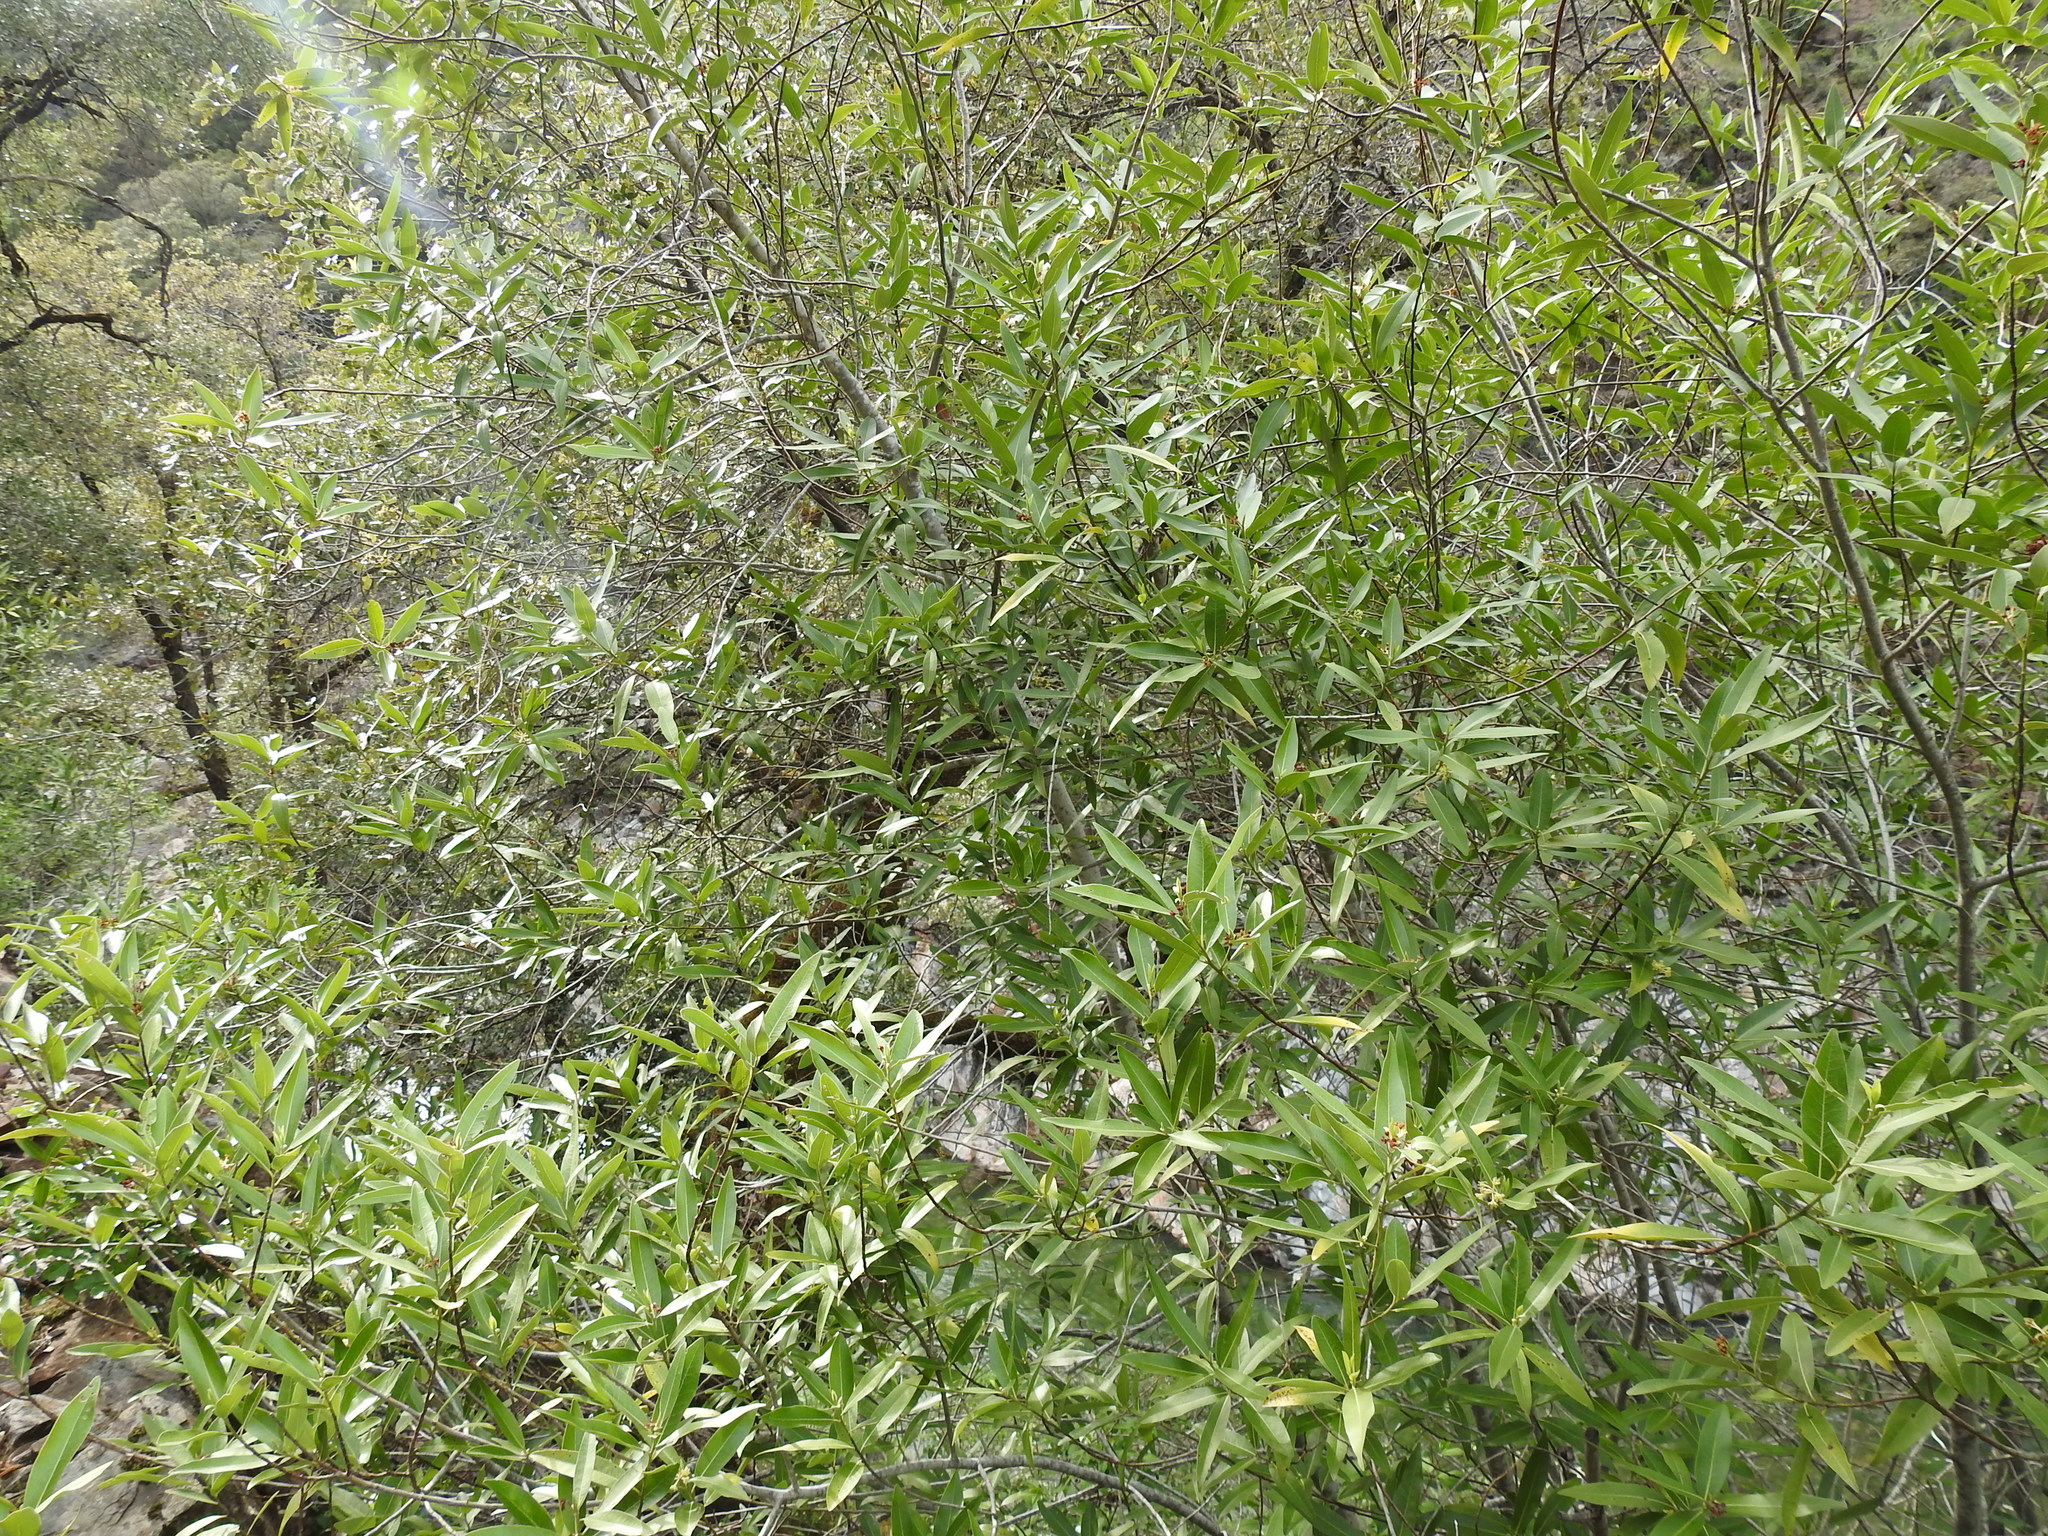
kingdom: Plantae
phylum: Tracheophyta
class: Magnoliopsida
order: Laurales
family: Lauraceae
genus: Umbellularia
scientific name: Umbellularia californica
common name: California bay
